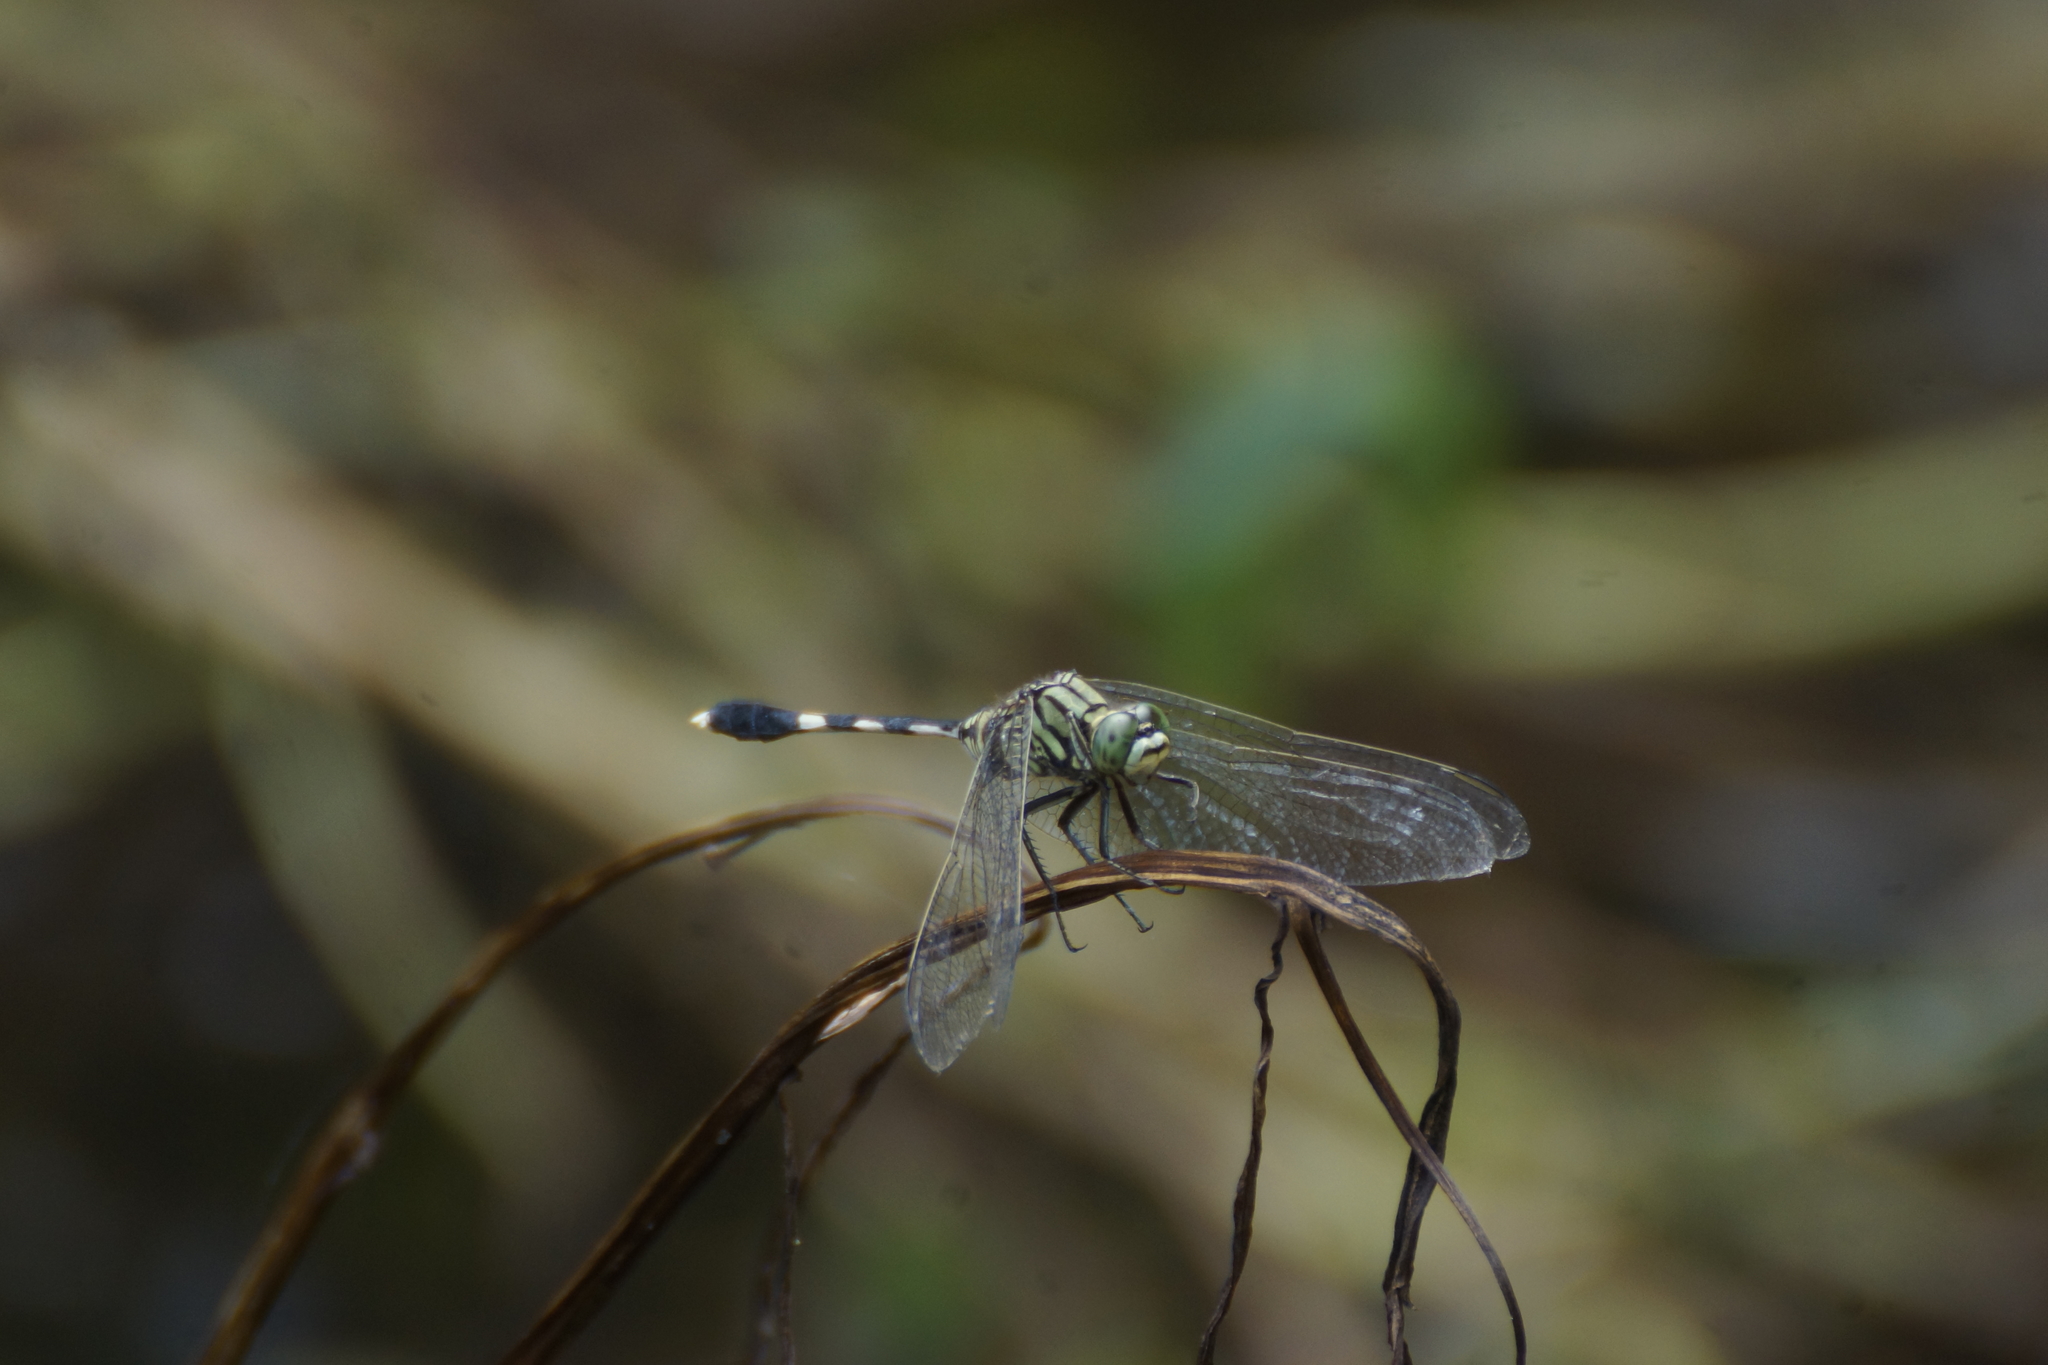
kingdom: Animalia
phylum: Arthropoda
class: Insecta
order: Odonata
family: Libellulidae
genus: Orthetrum
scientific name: Orthetrum sabina
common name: Slender skimmer
